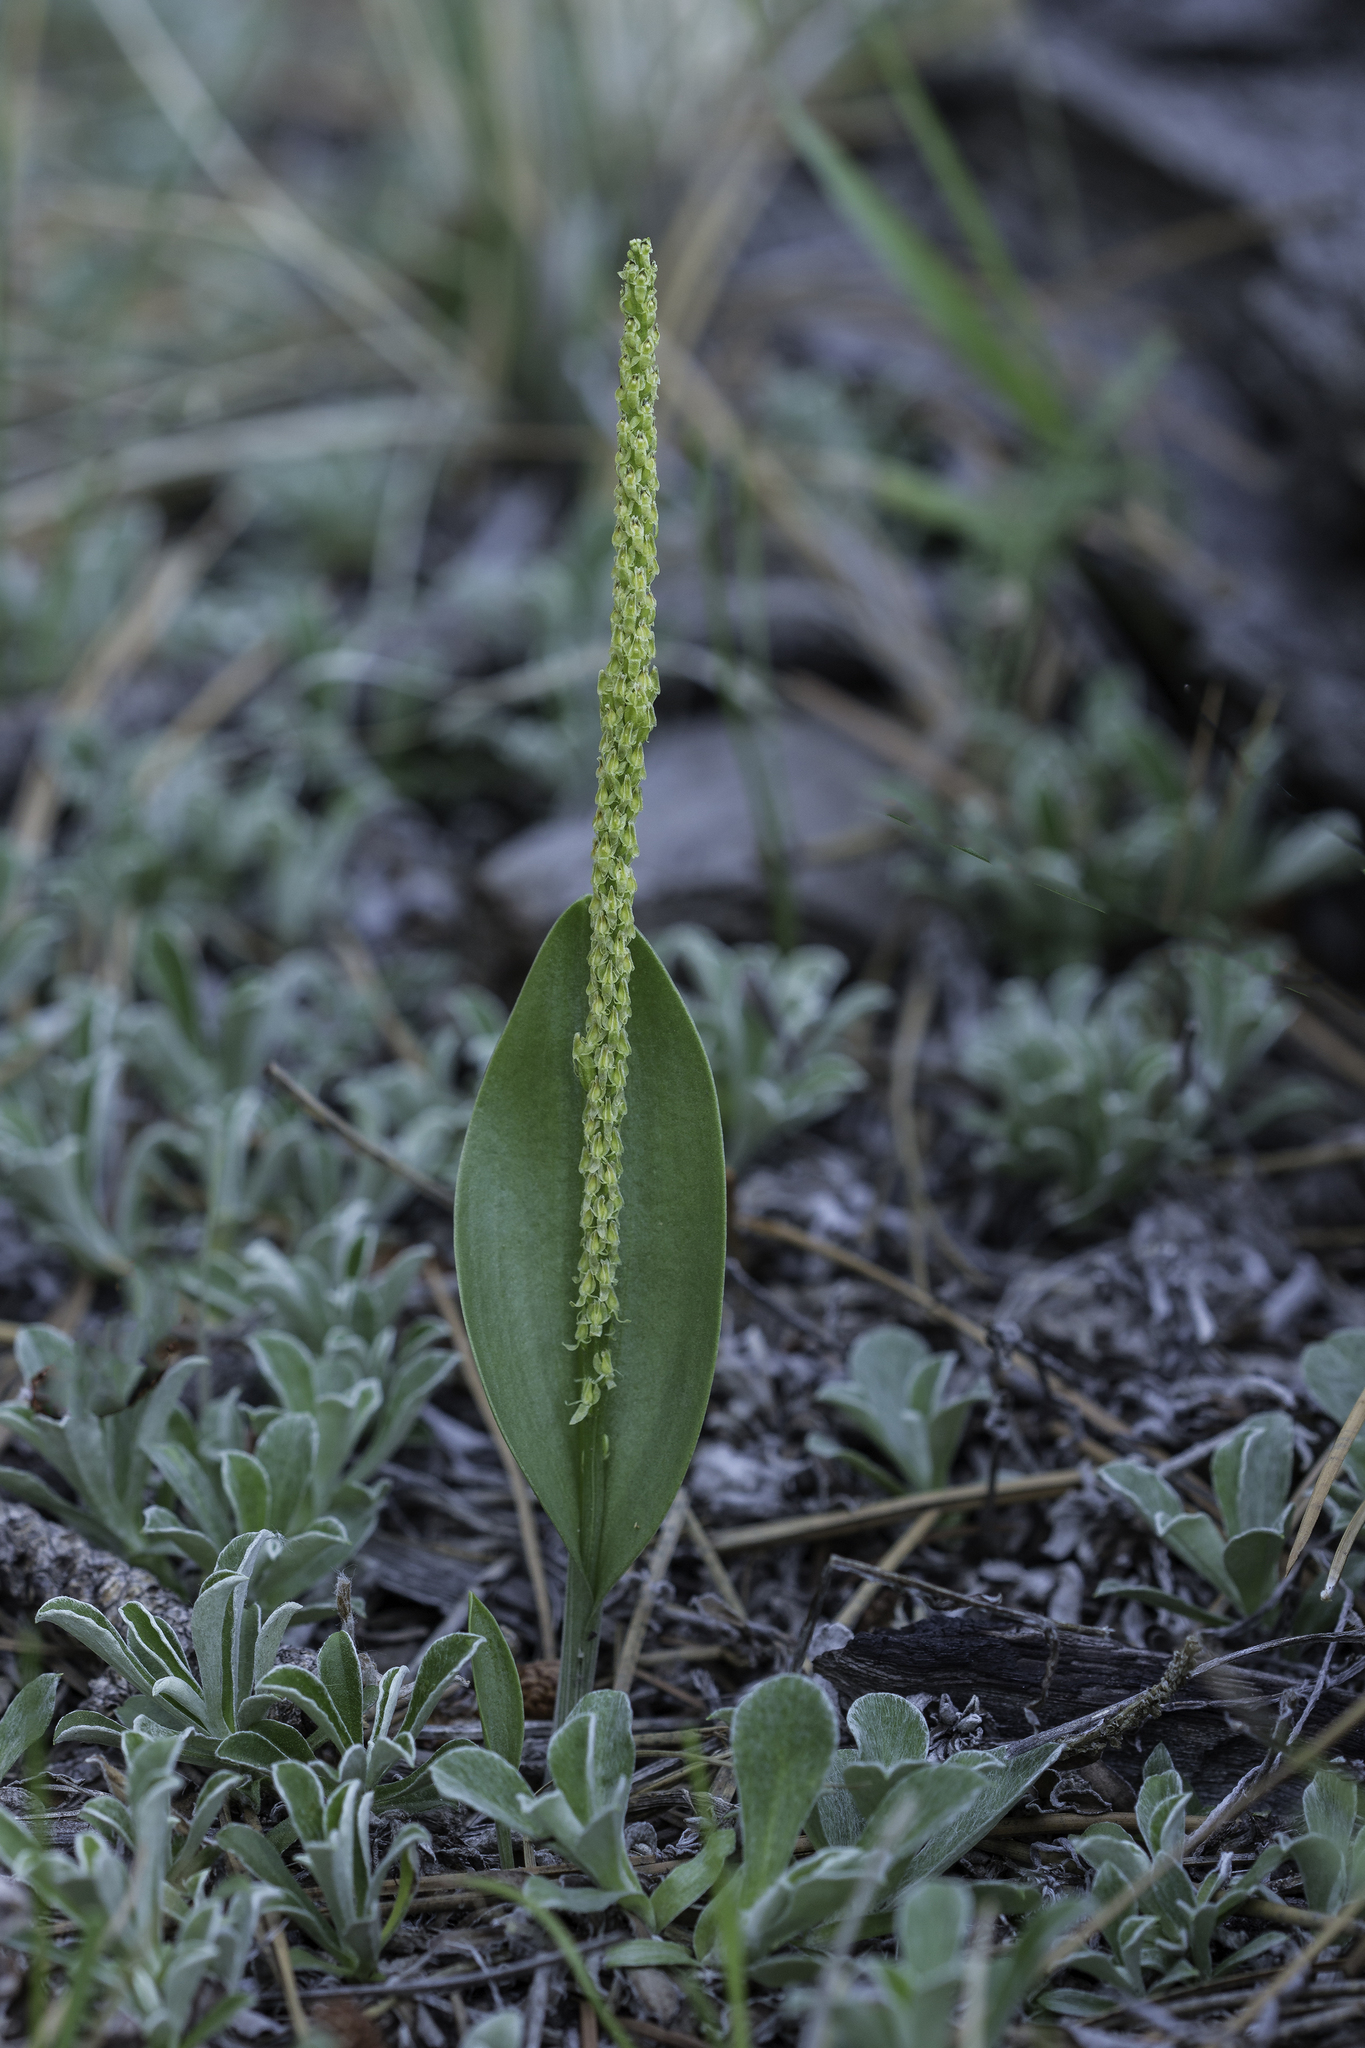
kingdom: Plantae
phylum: Tracheophyta
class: Liliopsida
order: Asparagales
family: Orchidaceae
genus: Malaxis
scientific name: Malaxis macrostachya
